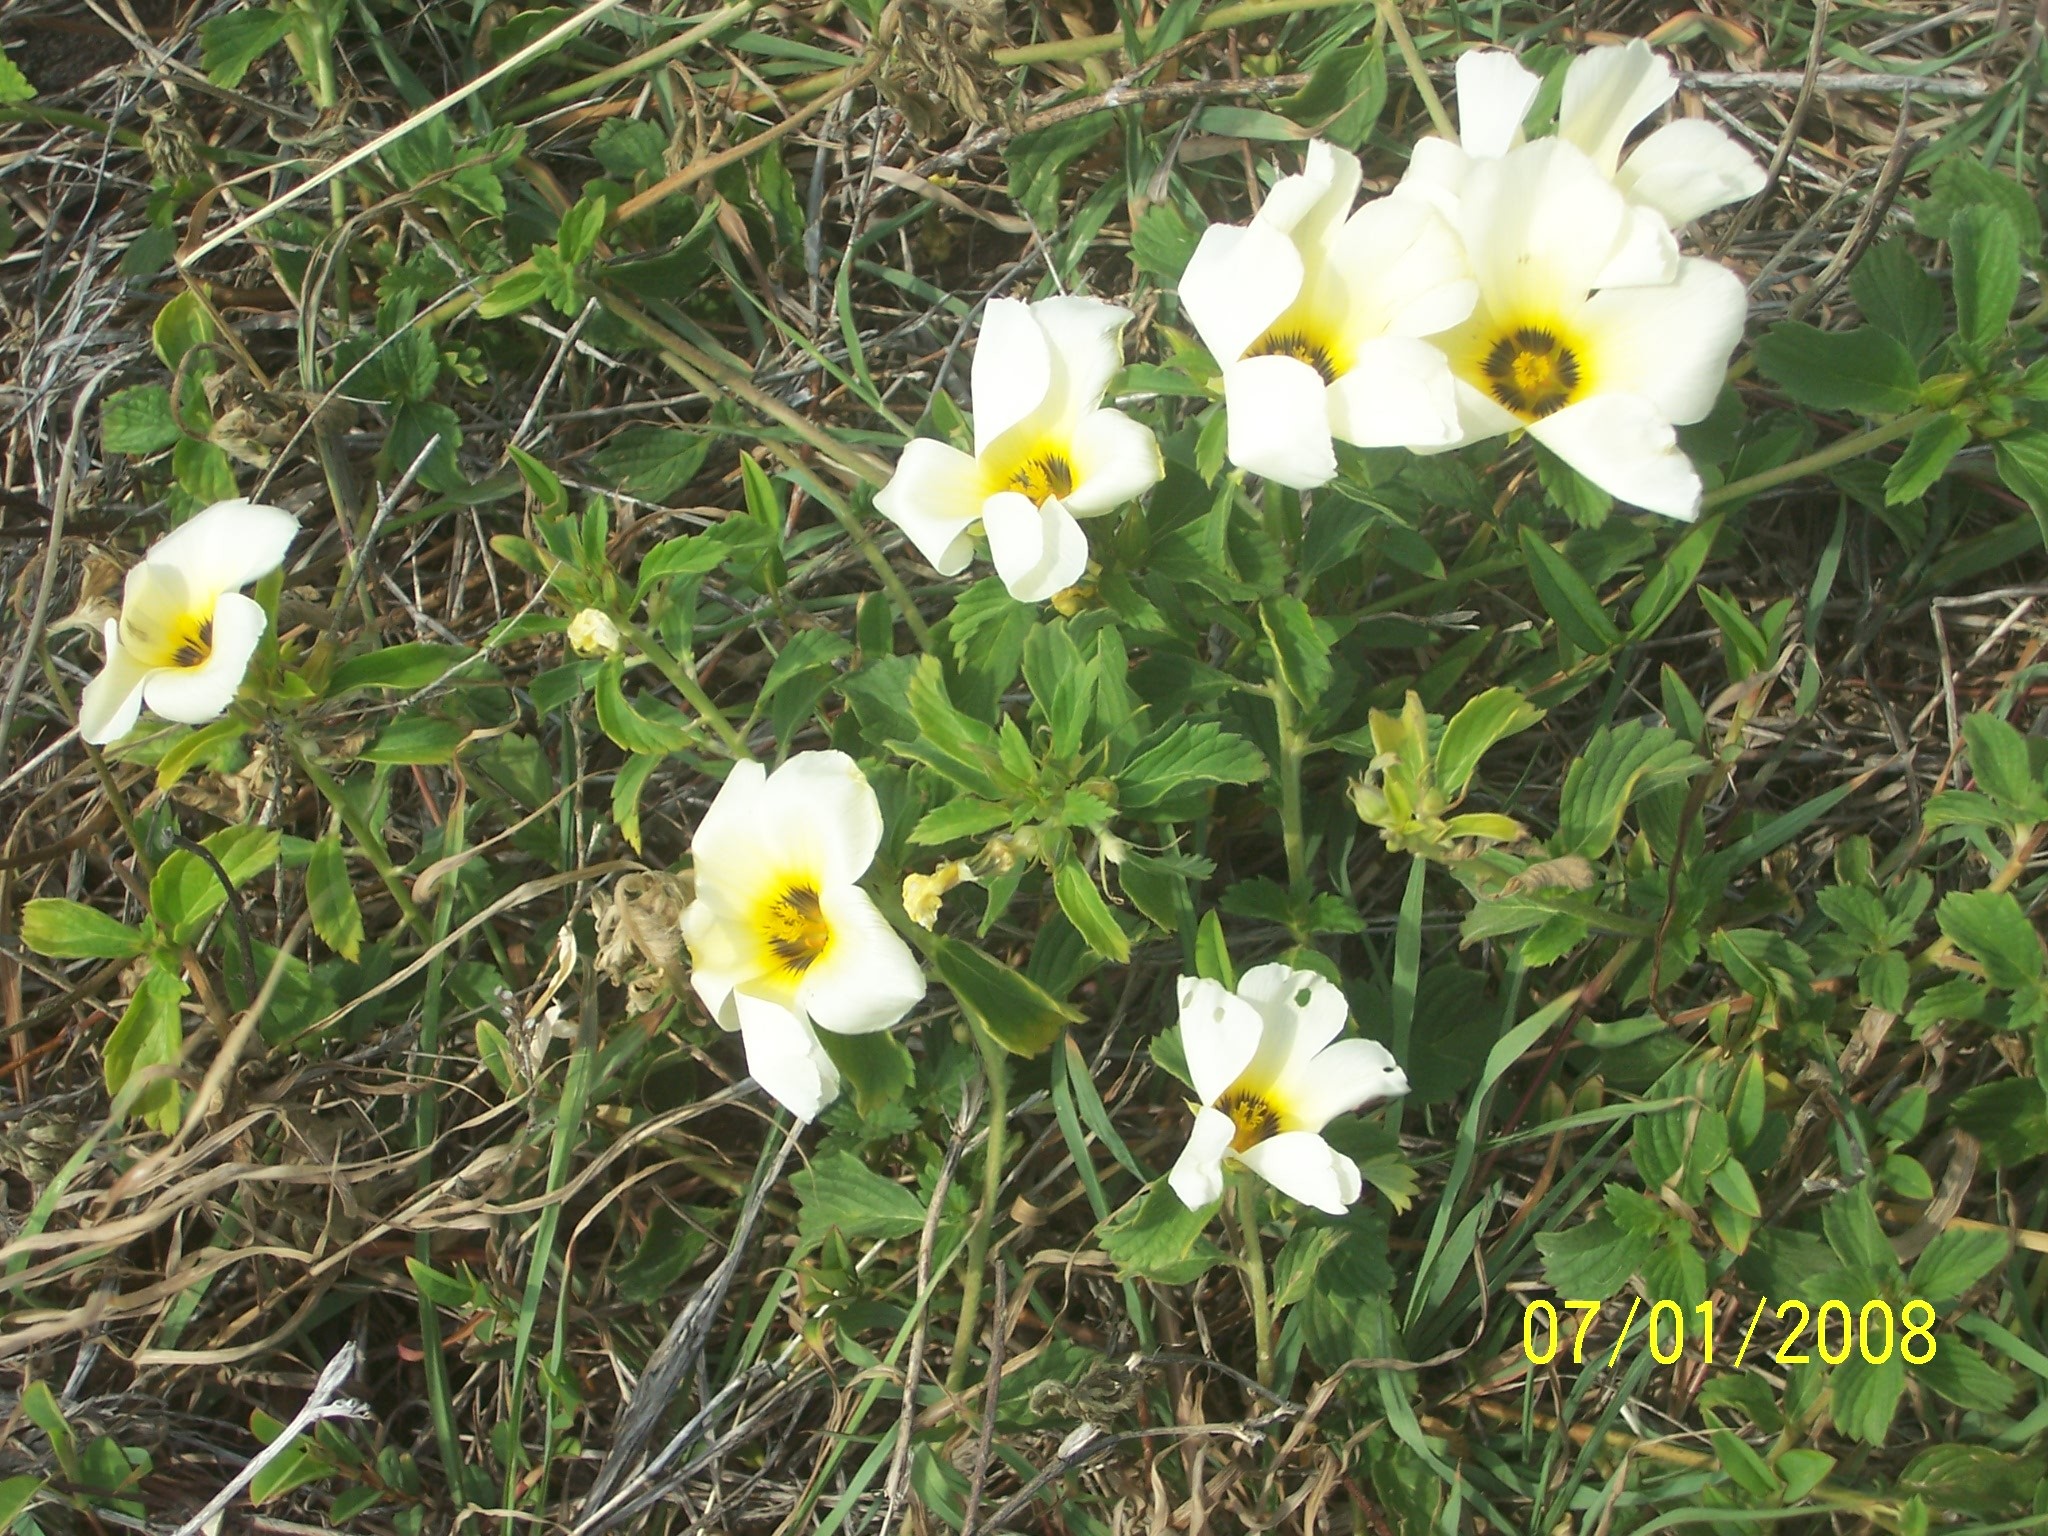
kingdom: Plantae
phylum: Tracheophyta
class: Magnoliopsida
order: Malpighiales
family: Turneraceae
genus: Turnera
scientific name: Turnera subulata
